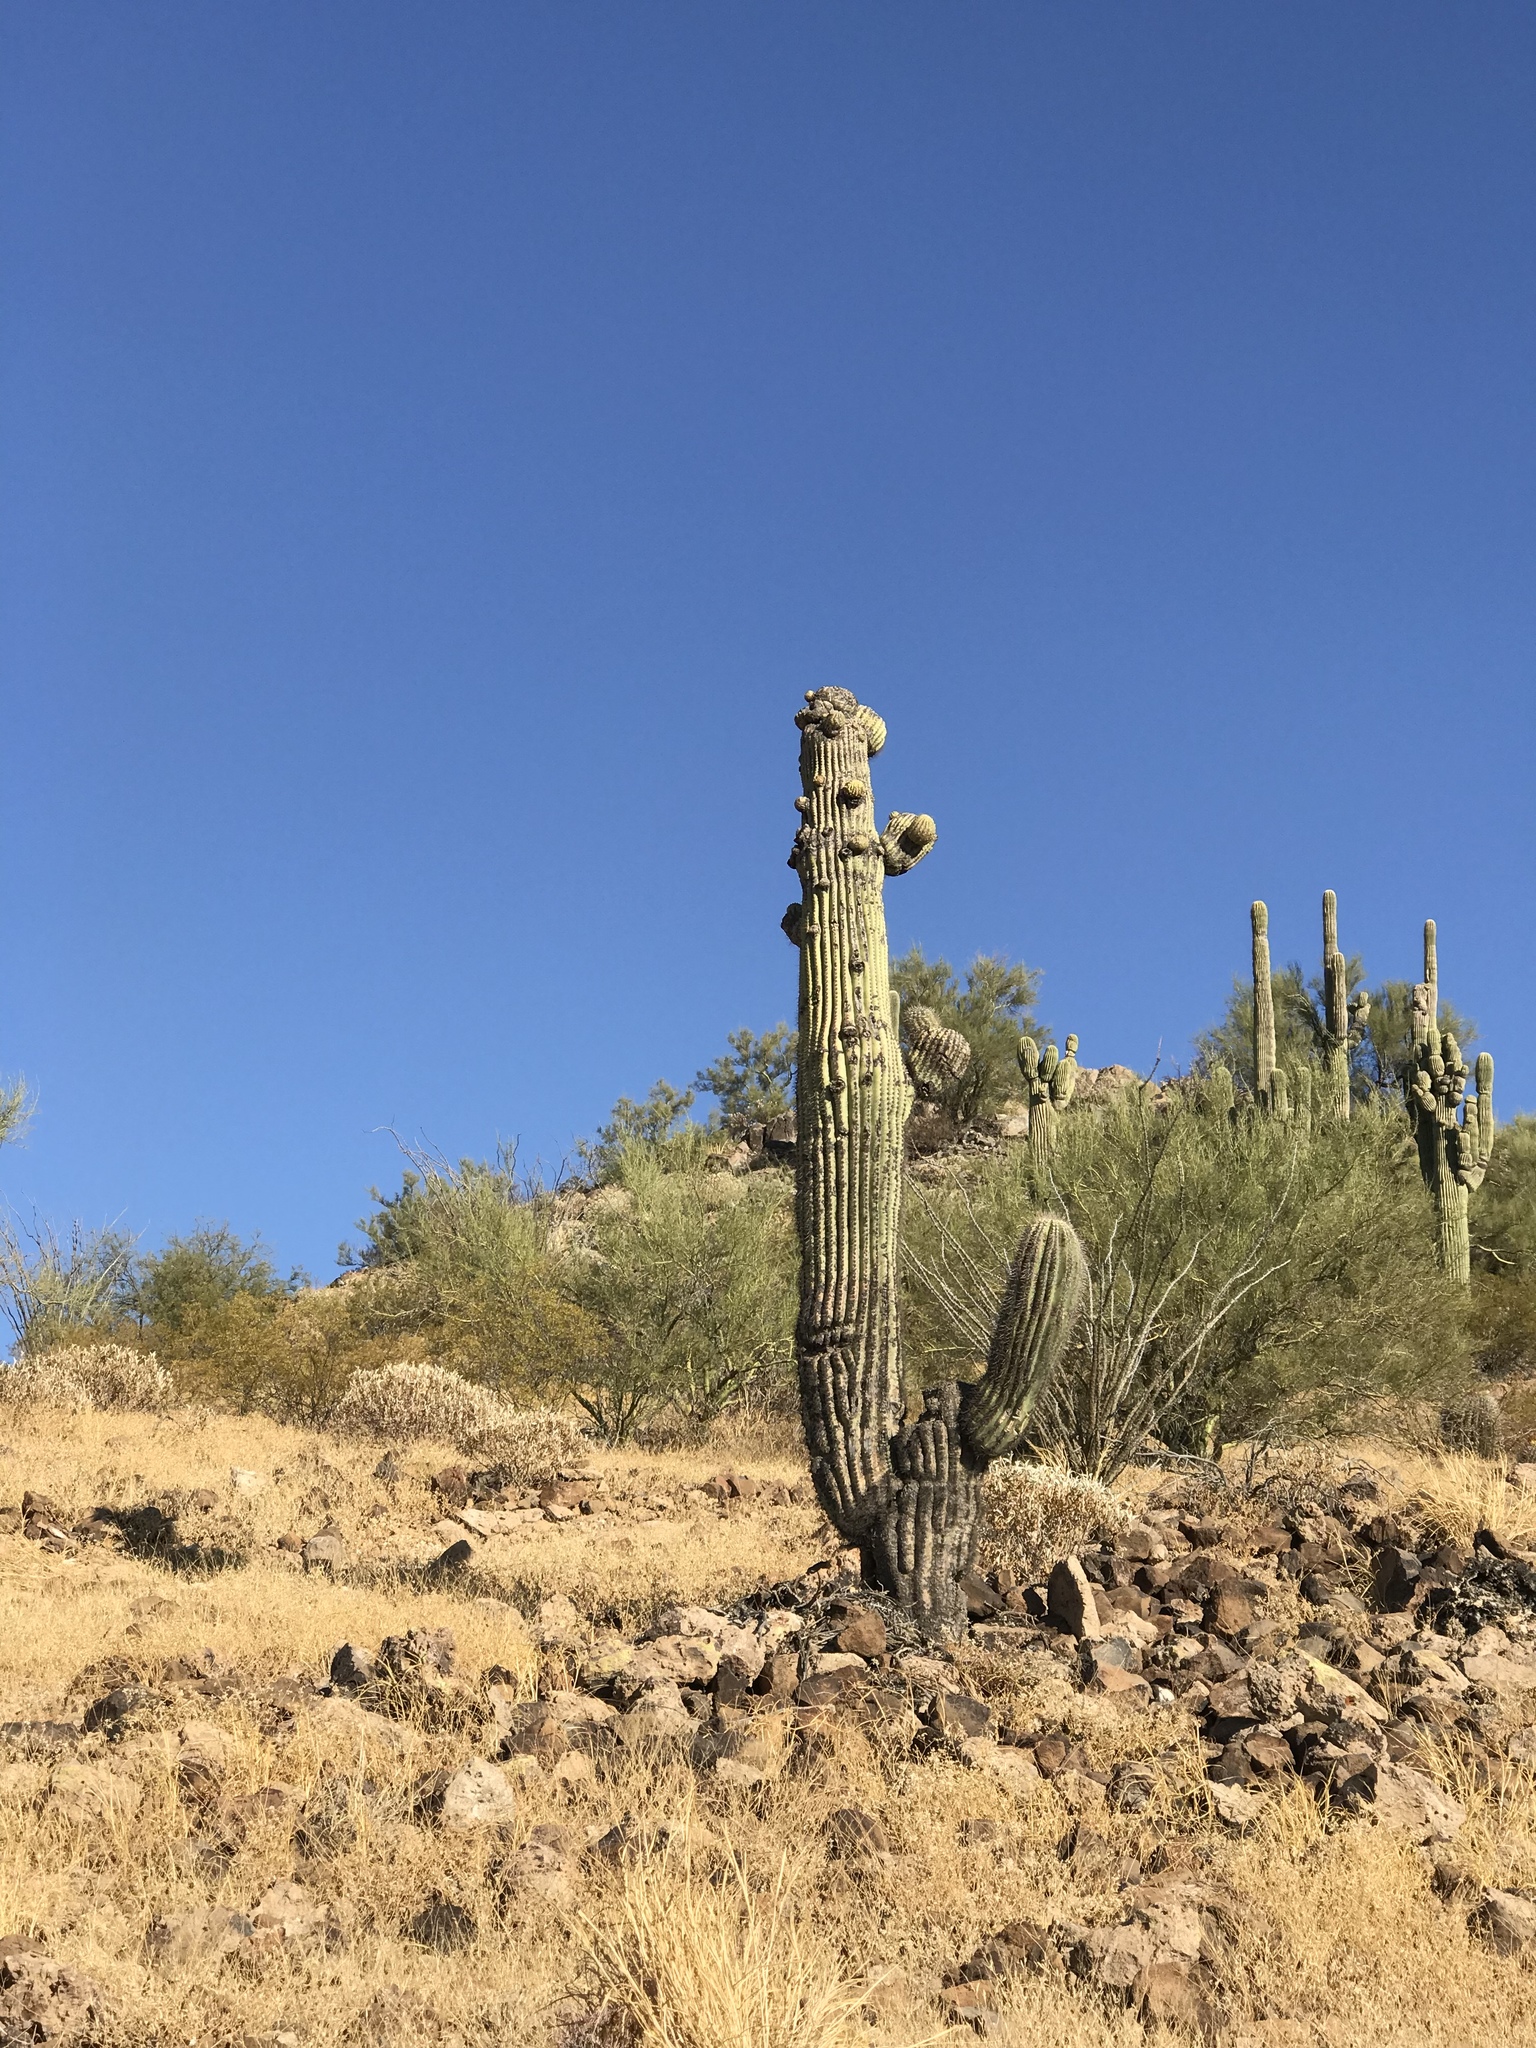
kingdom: Plantae
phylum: Tracheophyta
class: Magnoliopsida
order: Caryophyllales
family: Cactaceae
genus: Carnegiea
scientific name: Carnegiea gigantea
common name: Saguaro
